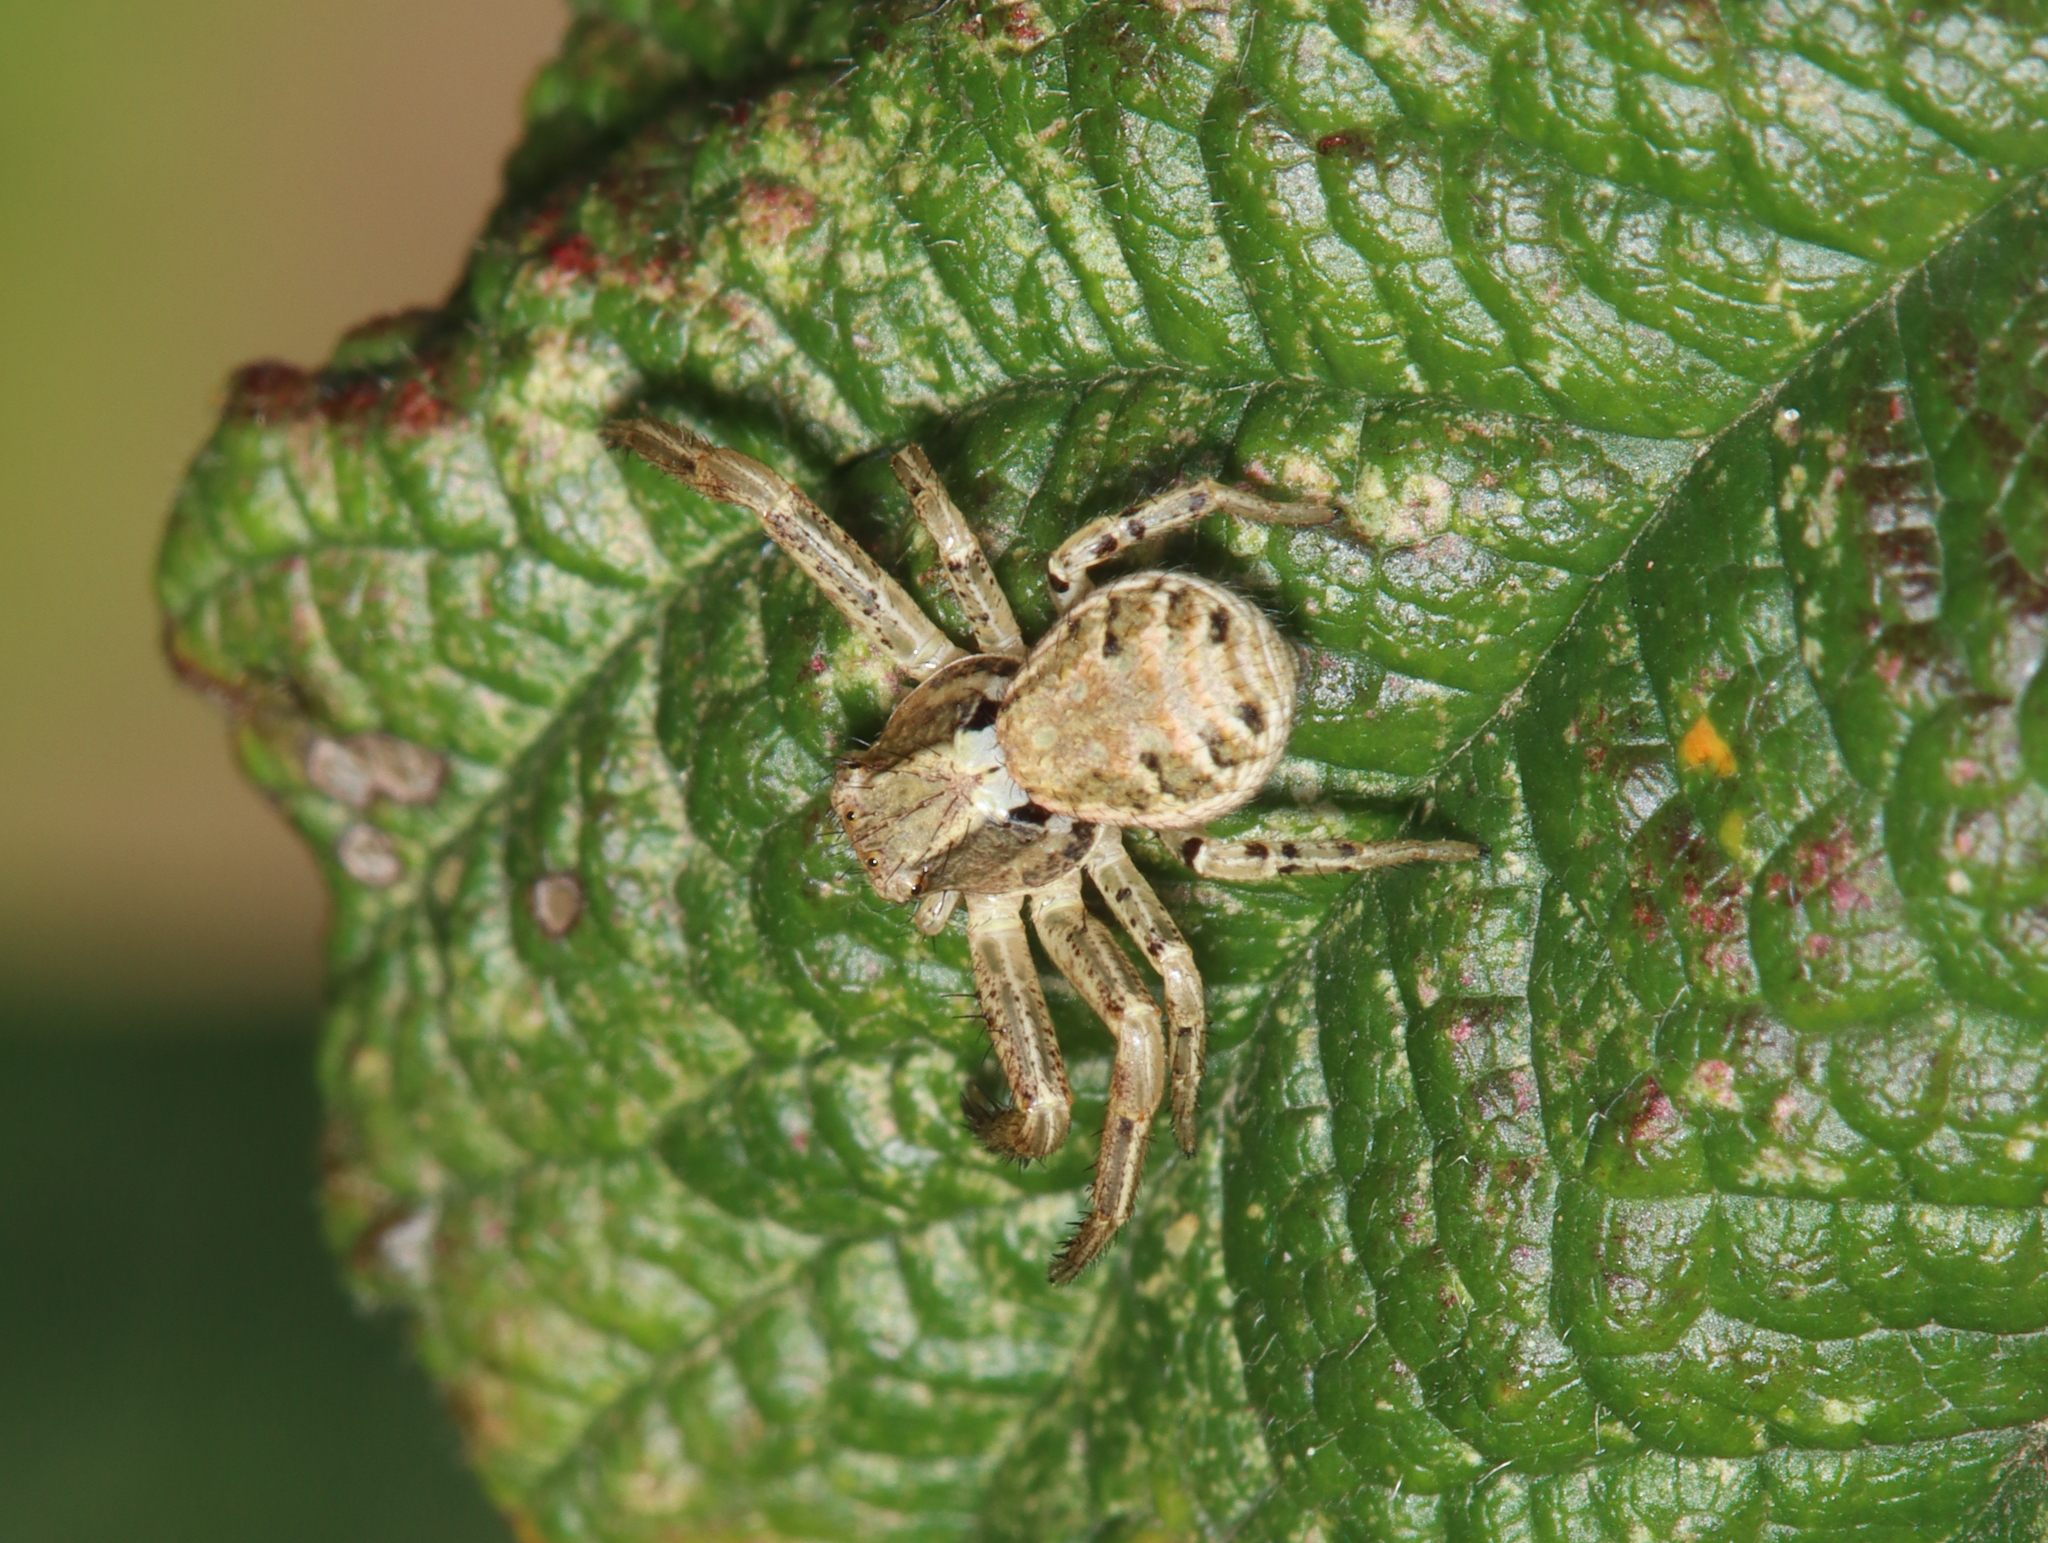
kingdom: Animalia
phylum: Arthropoda
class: Arachnida
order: Araneae
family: Thomisidae
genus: Xysticus
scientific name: Xysticus
